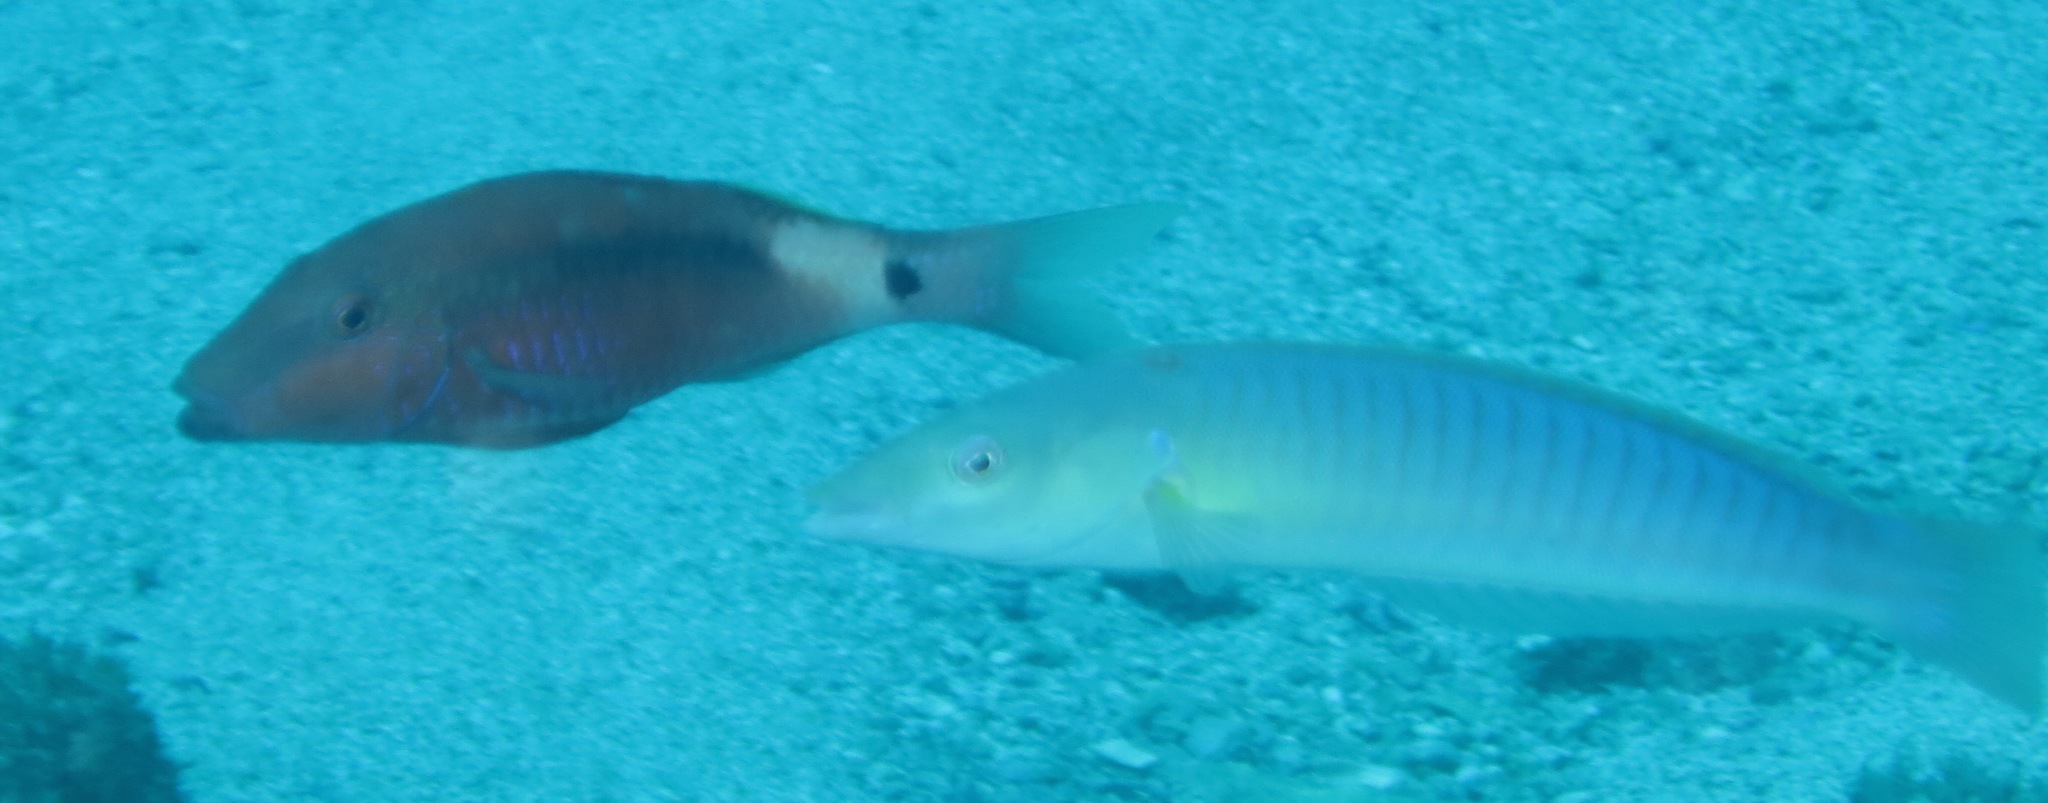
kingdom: Animalia
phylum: Chordata
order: Perciformes
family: Labridae
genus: Hologymnosus
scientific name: Hologymnosus doliatus
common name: Pastel ringwrasse
